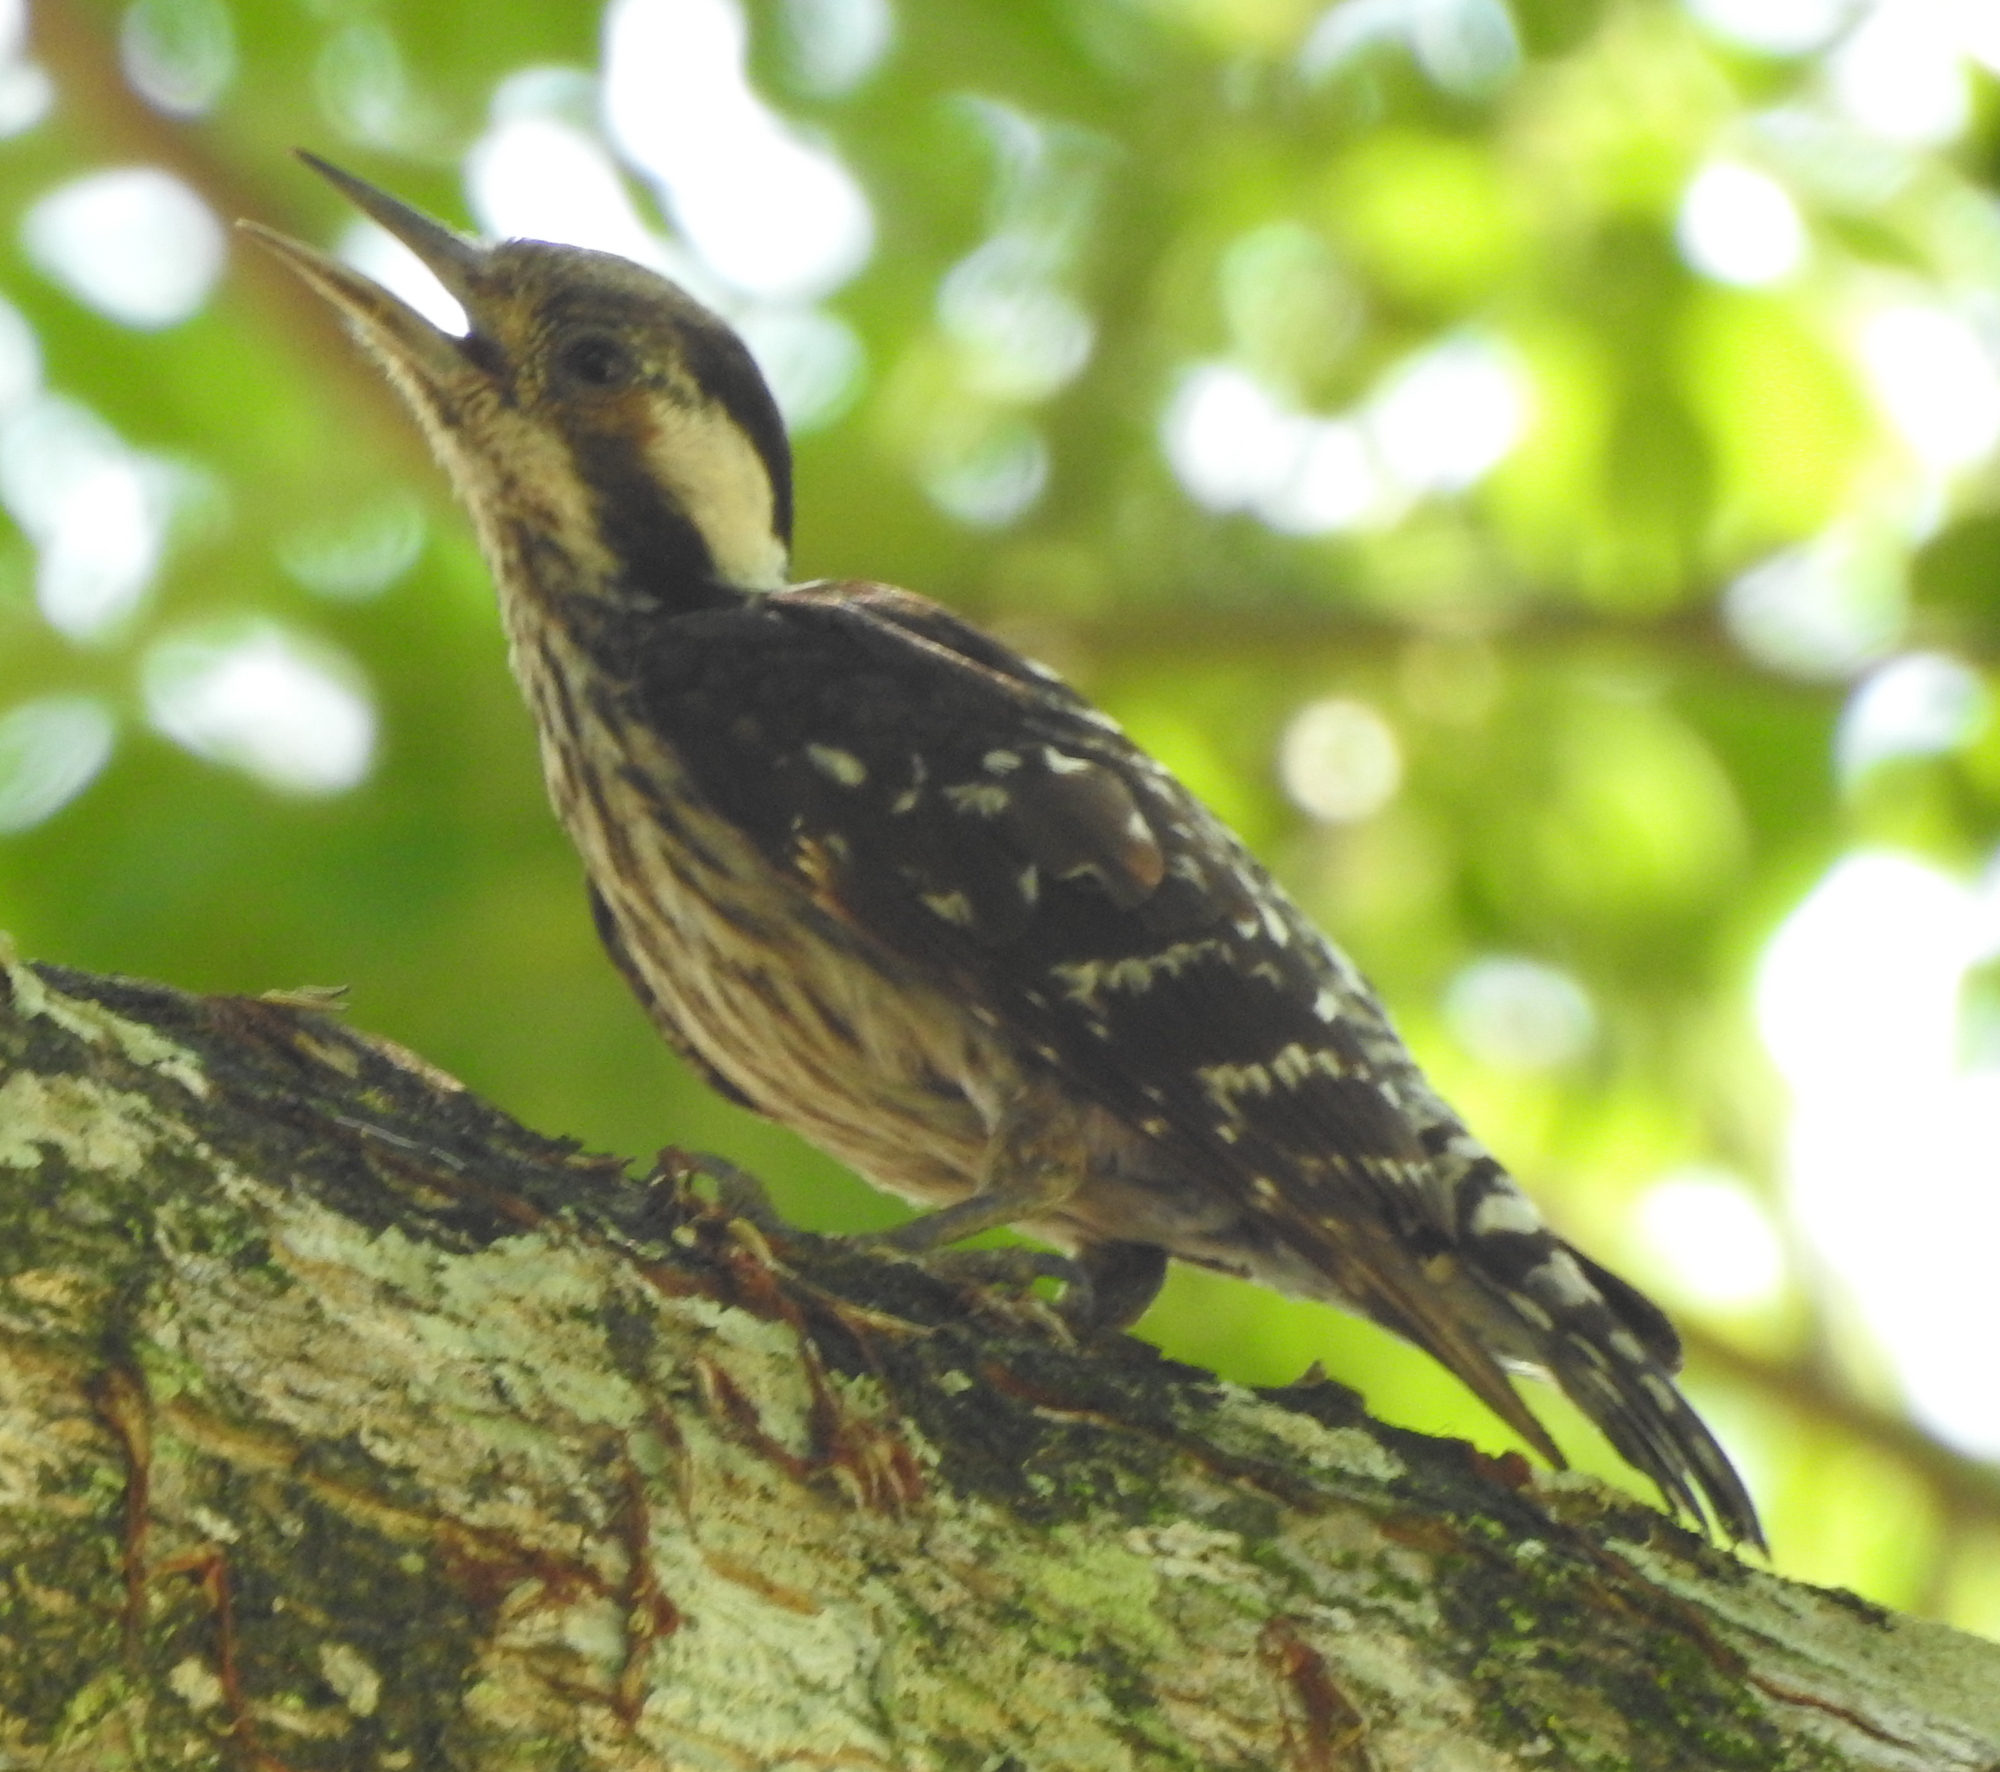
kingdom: Animalia
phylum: Chordata
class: Aves
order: Piciformes
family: Picidae
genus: Yungipicus
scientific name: Yungipicus canicapillus
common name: Grey-capped pygmy woodpecker
